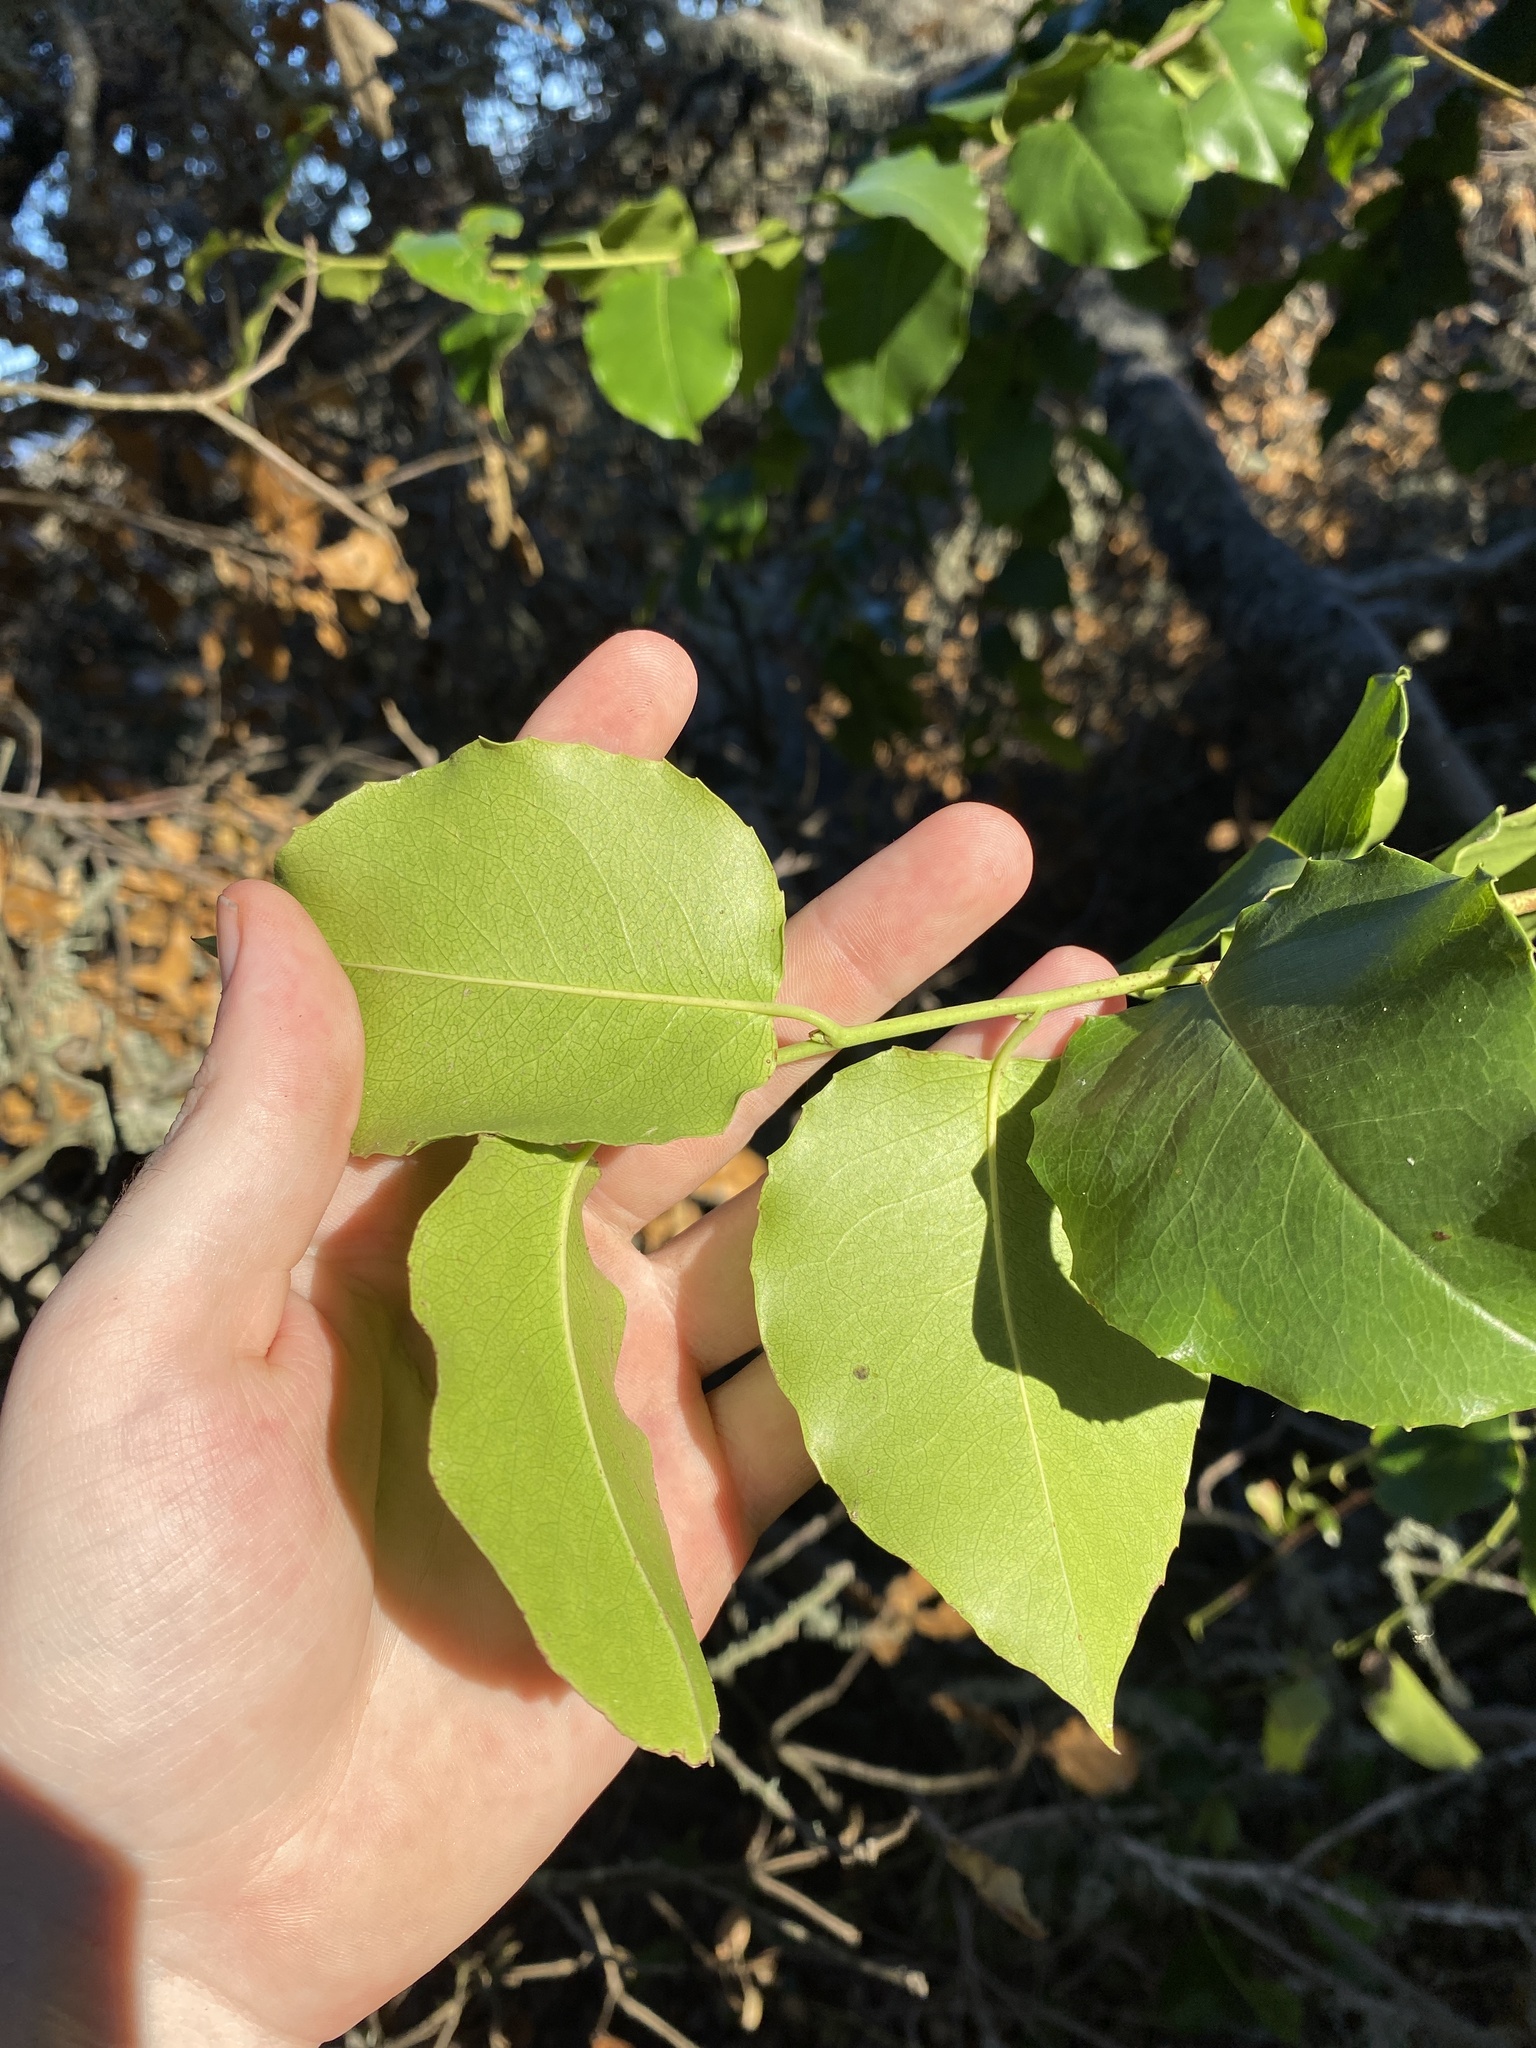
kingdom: Plantae
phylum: Tracheophyta
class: Magnoliopsida
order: Rosales
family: Rosaceae
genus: Prunus
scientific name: Prunus ilicifolia
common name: Hollyleaf cherry
